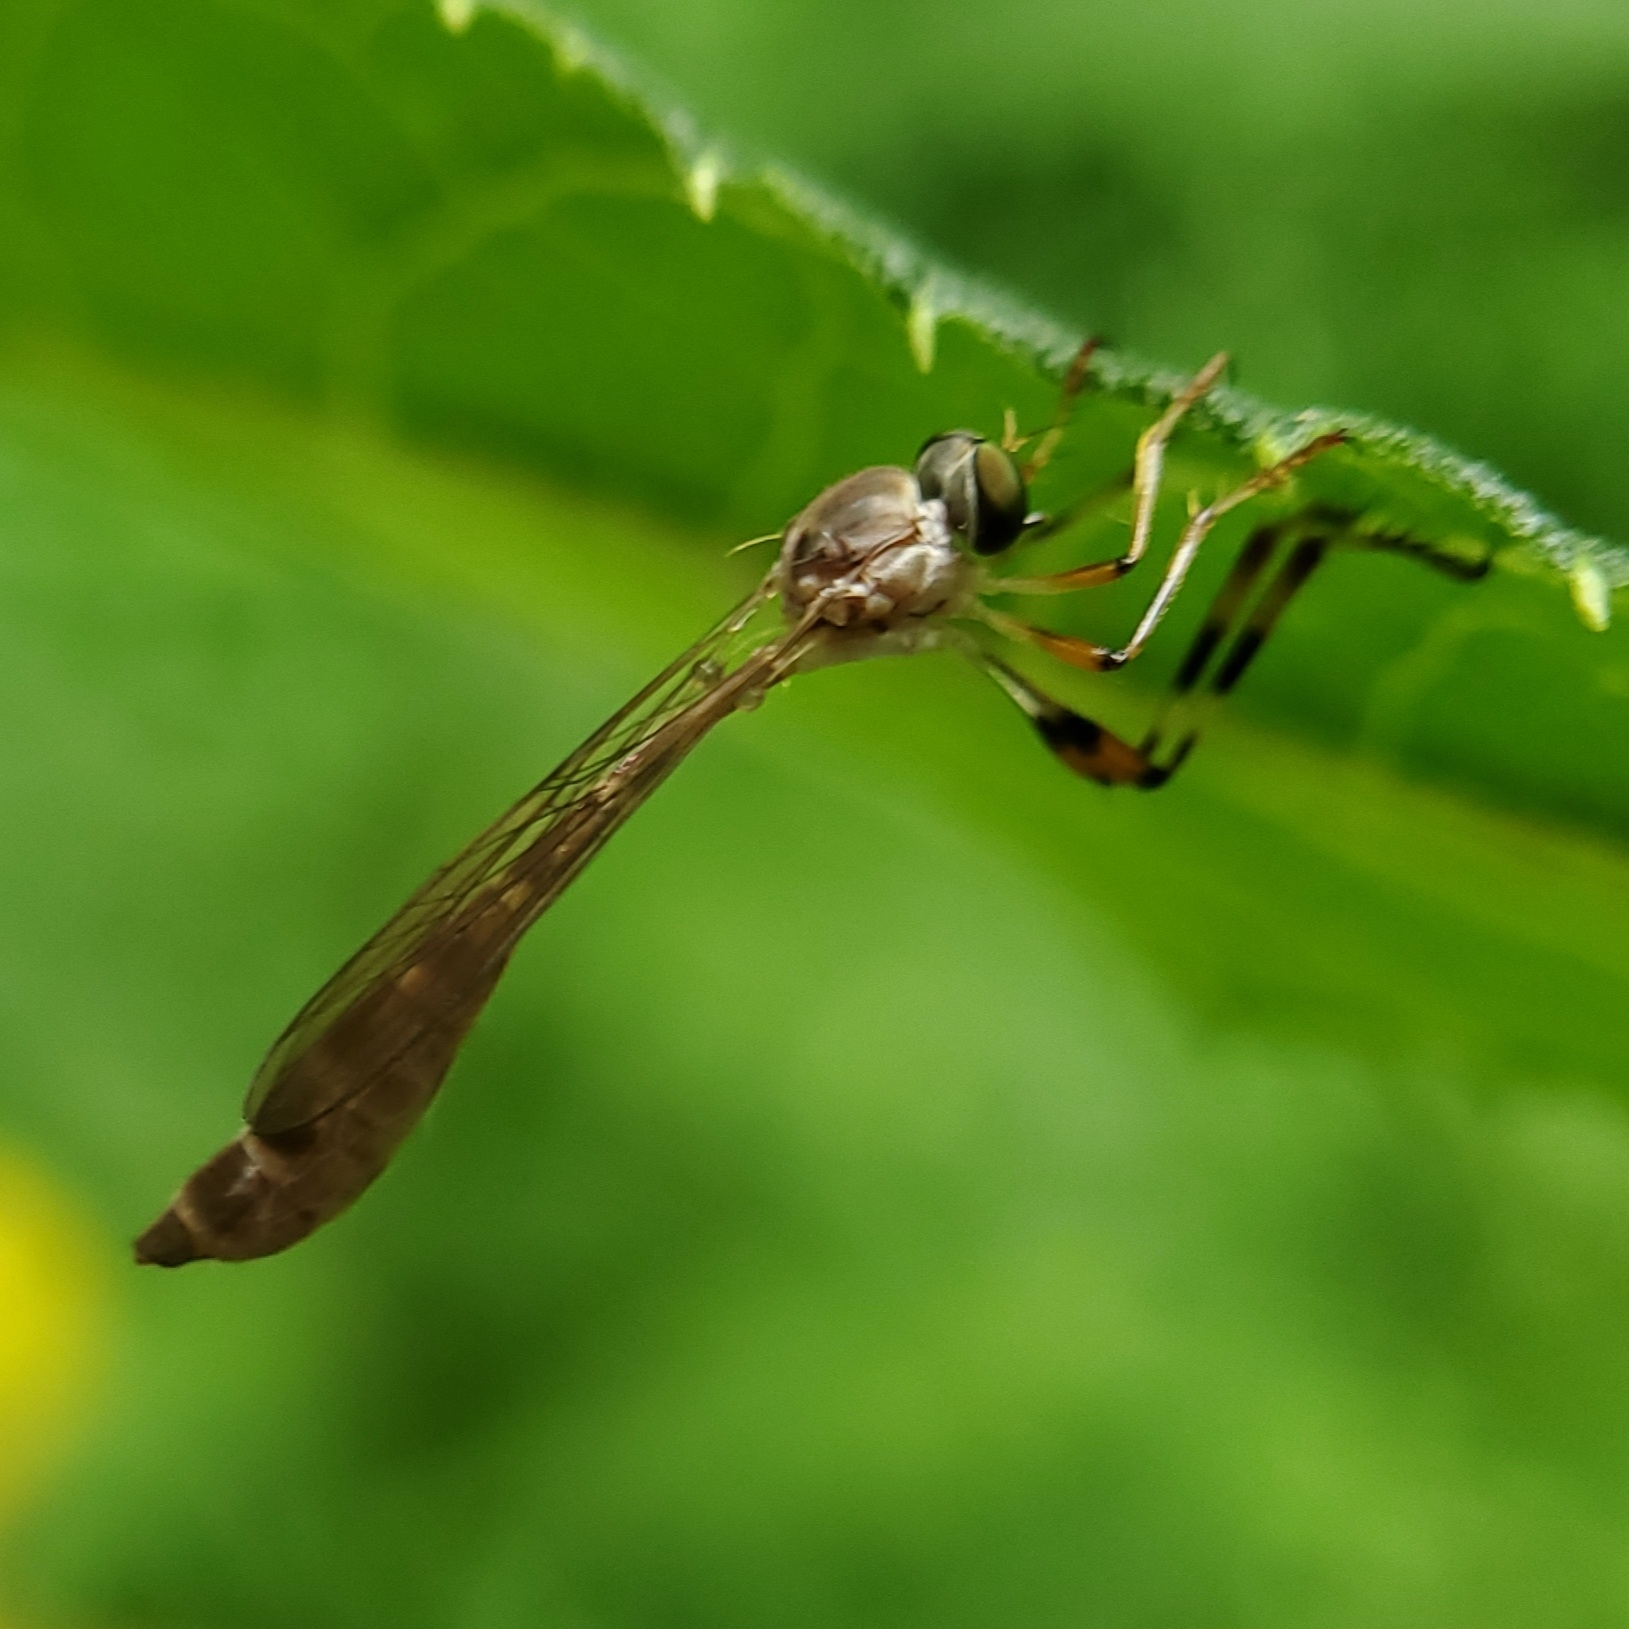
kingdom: Animalia
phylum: Arthropoda
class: Insecta
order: Diptera
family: Asilidae
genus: Psilonyx
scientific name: Psilonyx annulatus
